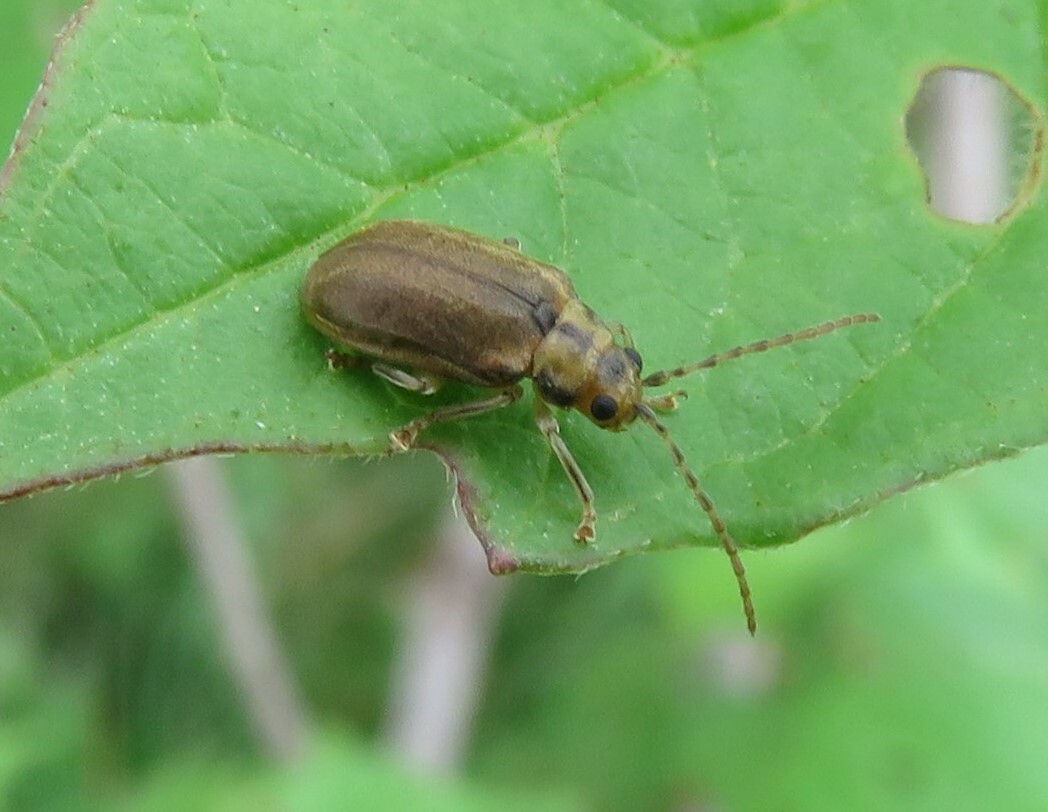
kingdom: Animalia
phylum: Arthropoda
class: Insecta
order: Coleoptera
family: Chrysomelidae
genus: Pyrrhalta
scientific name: Pyrrhalta viburni
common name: Guelder-rose leaf beetle
